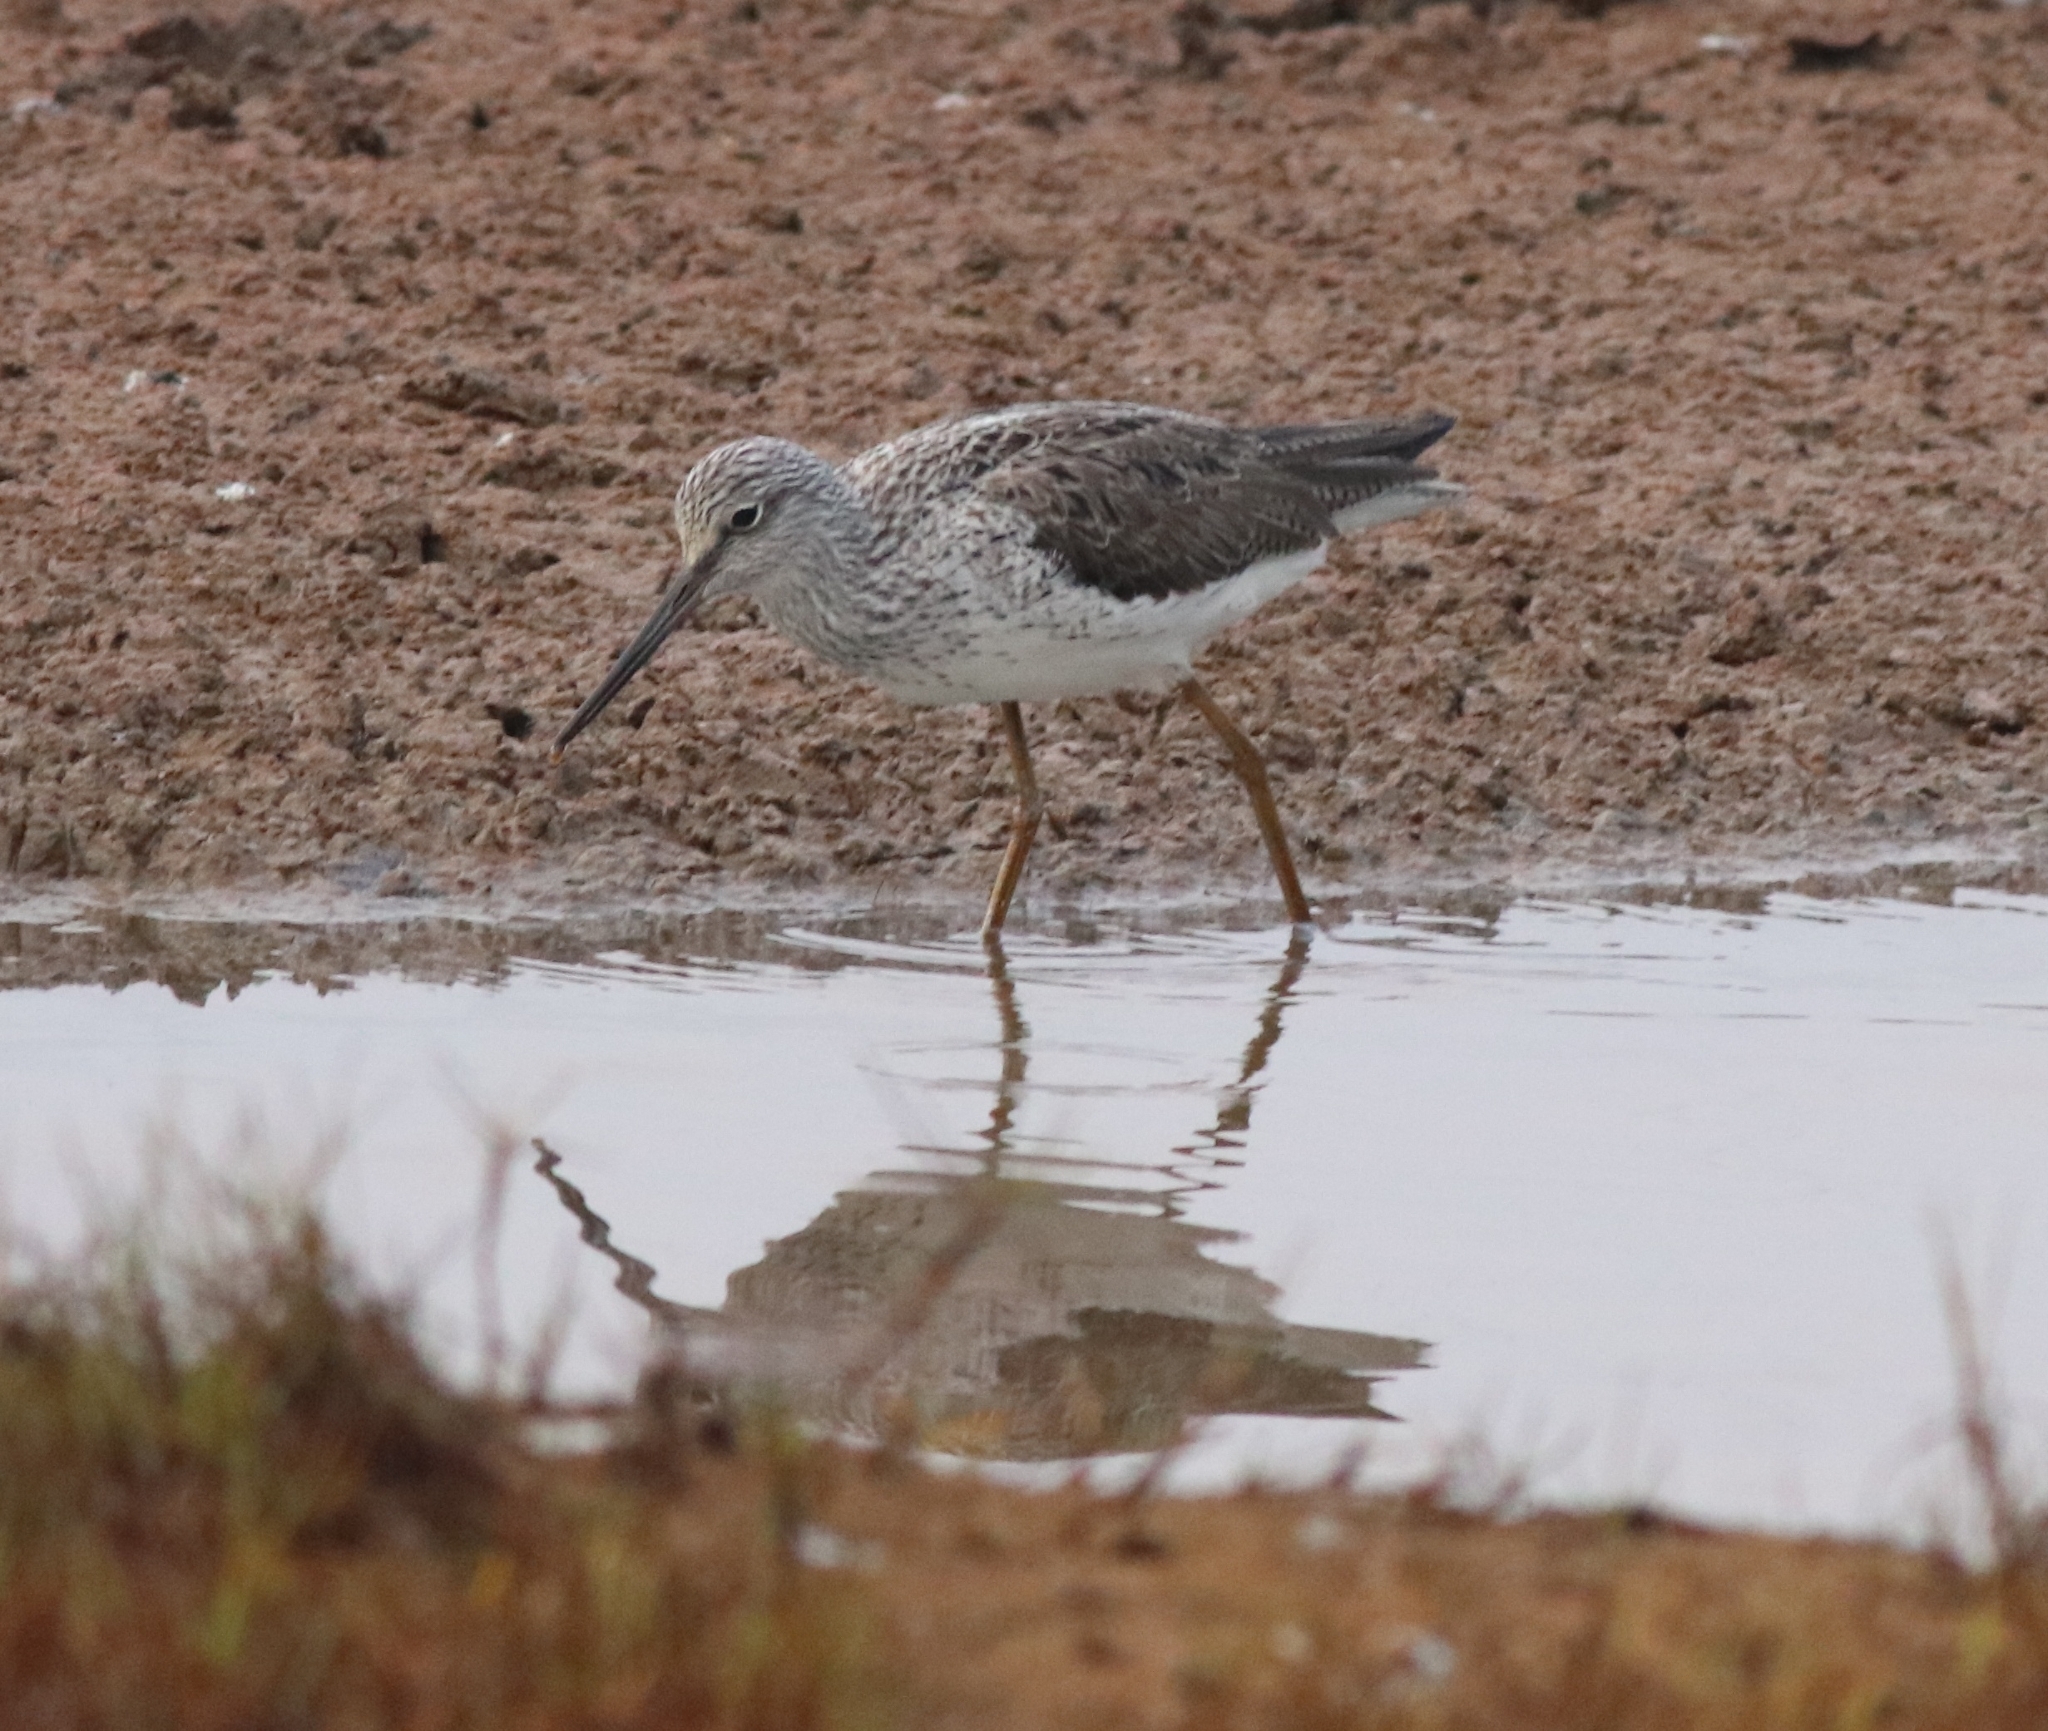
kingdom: Animalia
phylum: Chordata
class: Aves
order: Charadriiformes
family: Scolopacidae
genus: Tringa
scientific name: Tringa nebularia
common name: Common greenshank
